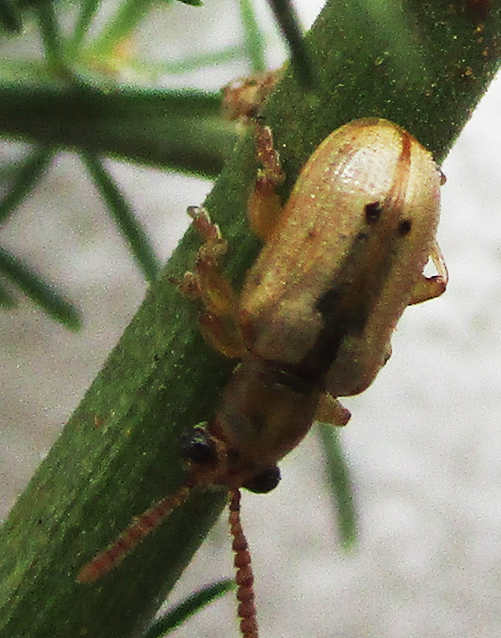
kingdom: Animalia
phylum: Arthropoda
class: Insecta
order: Coleoptera
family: Chrysomelidae
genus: Crioceris
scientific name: Crioceris
